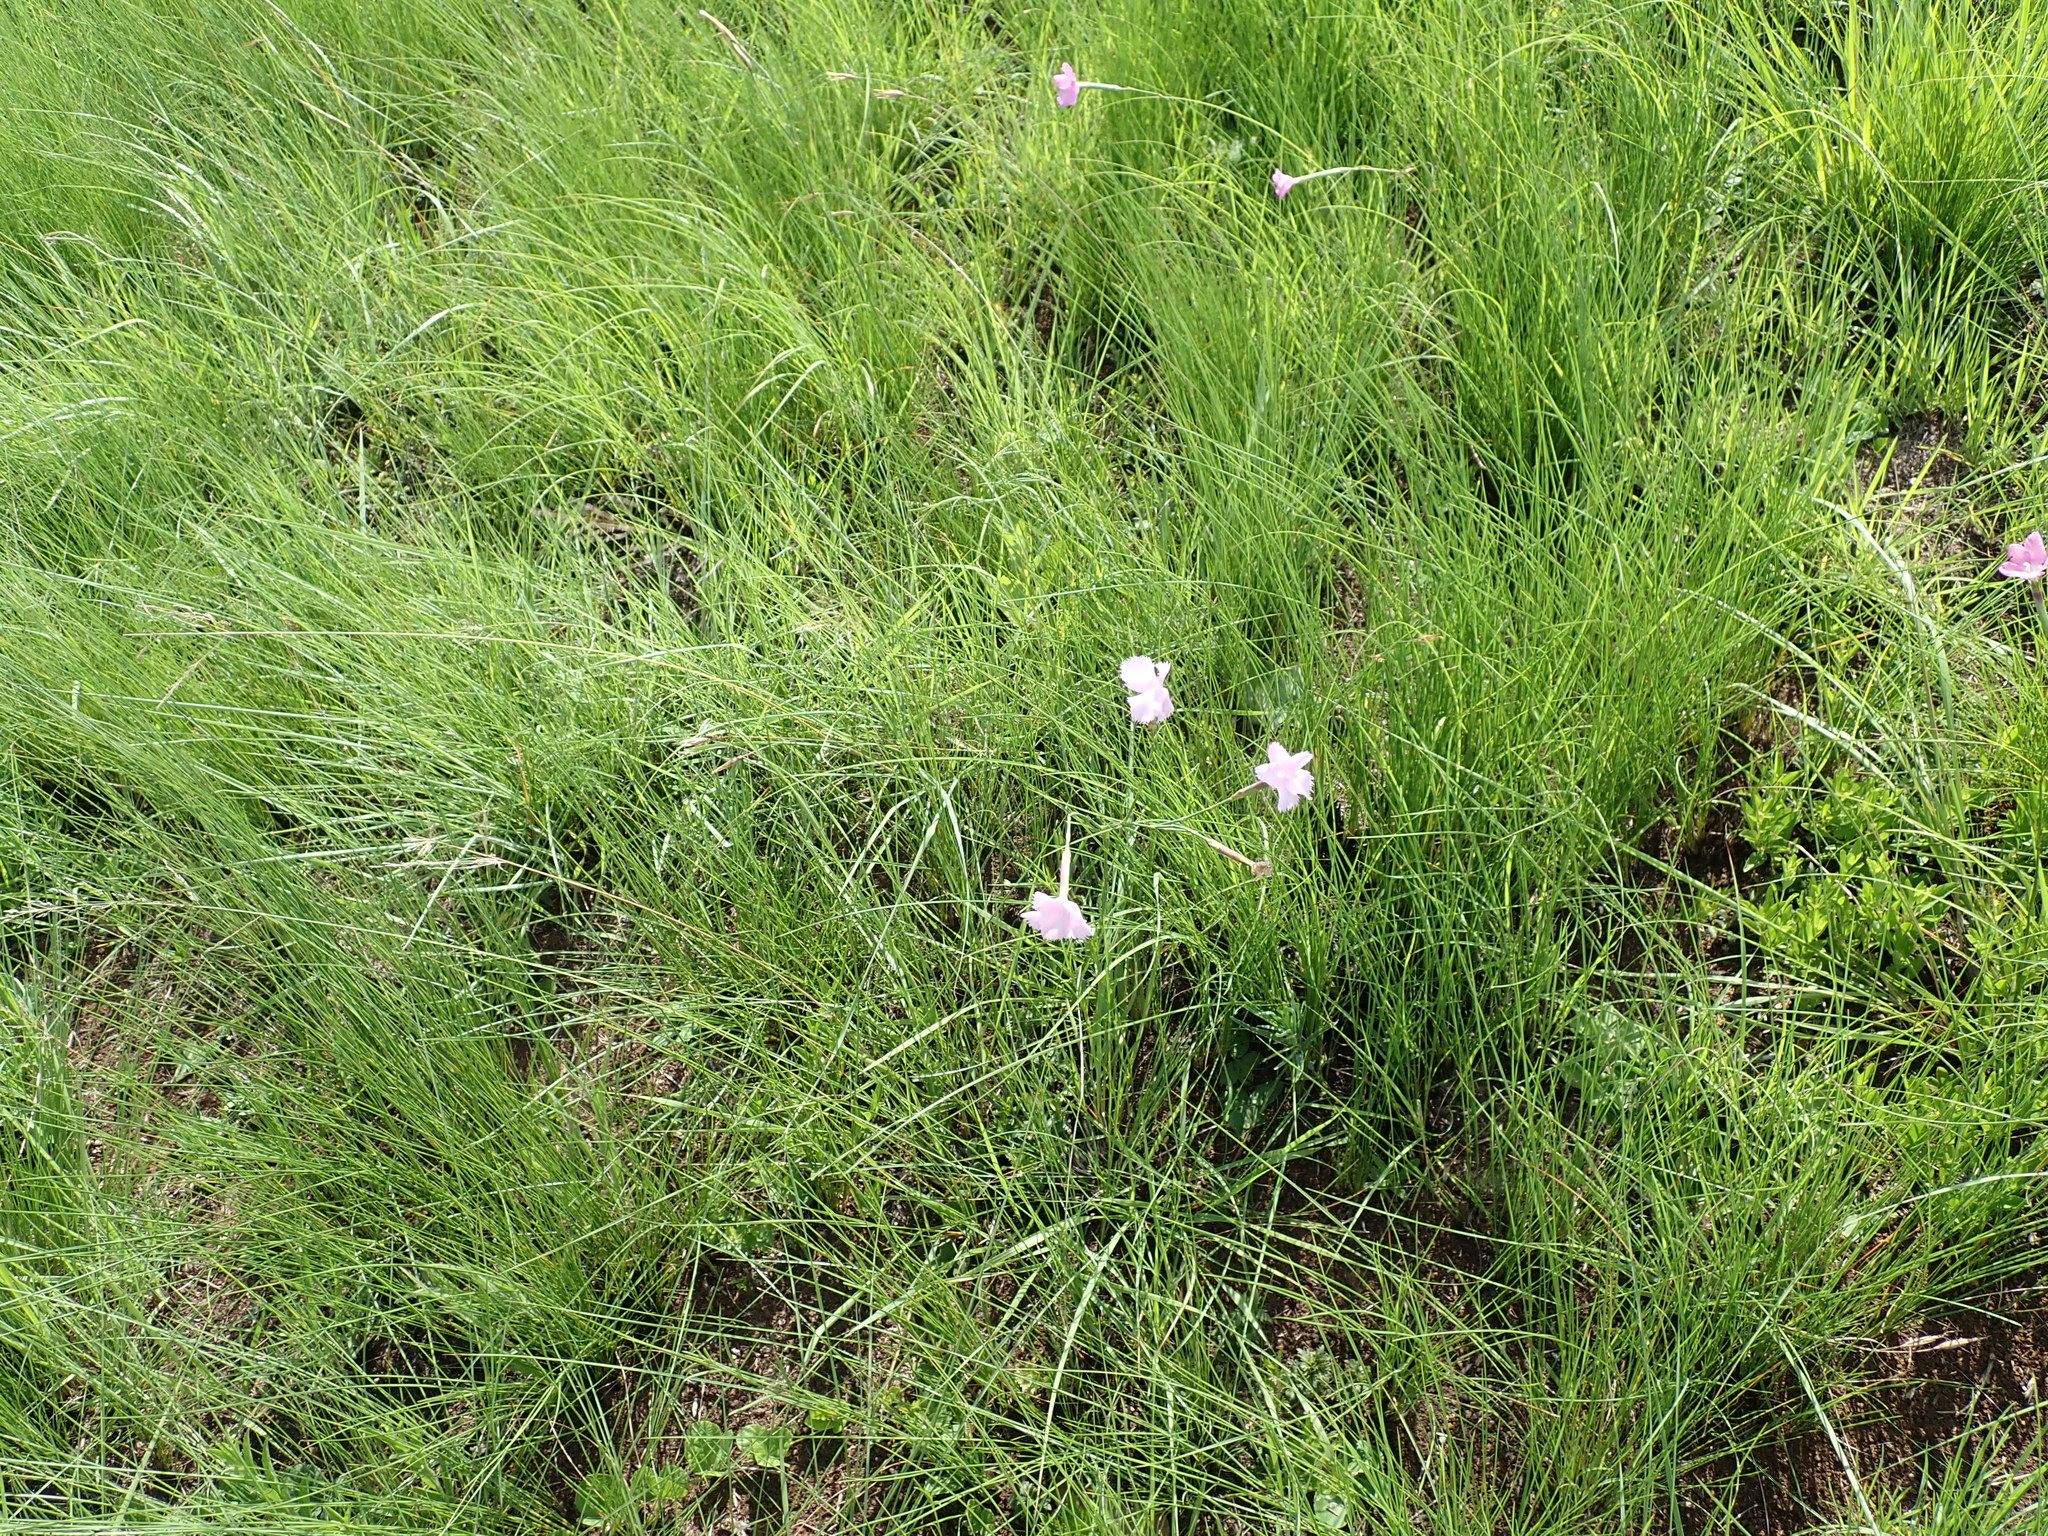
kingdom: Plantae
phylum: Tracheophyta
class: Magnoliopsida
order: Caryophyllales
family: Caryophyllaceae
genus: Dianthus
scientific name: Dianthus zeyheri
